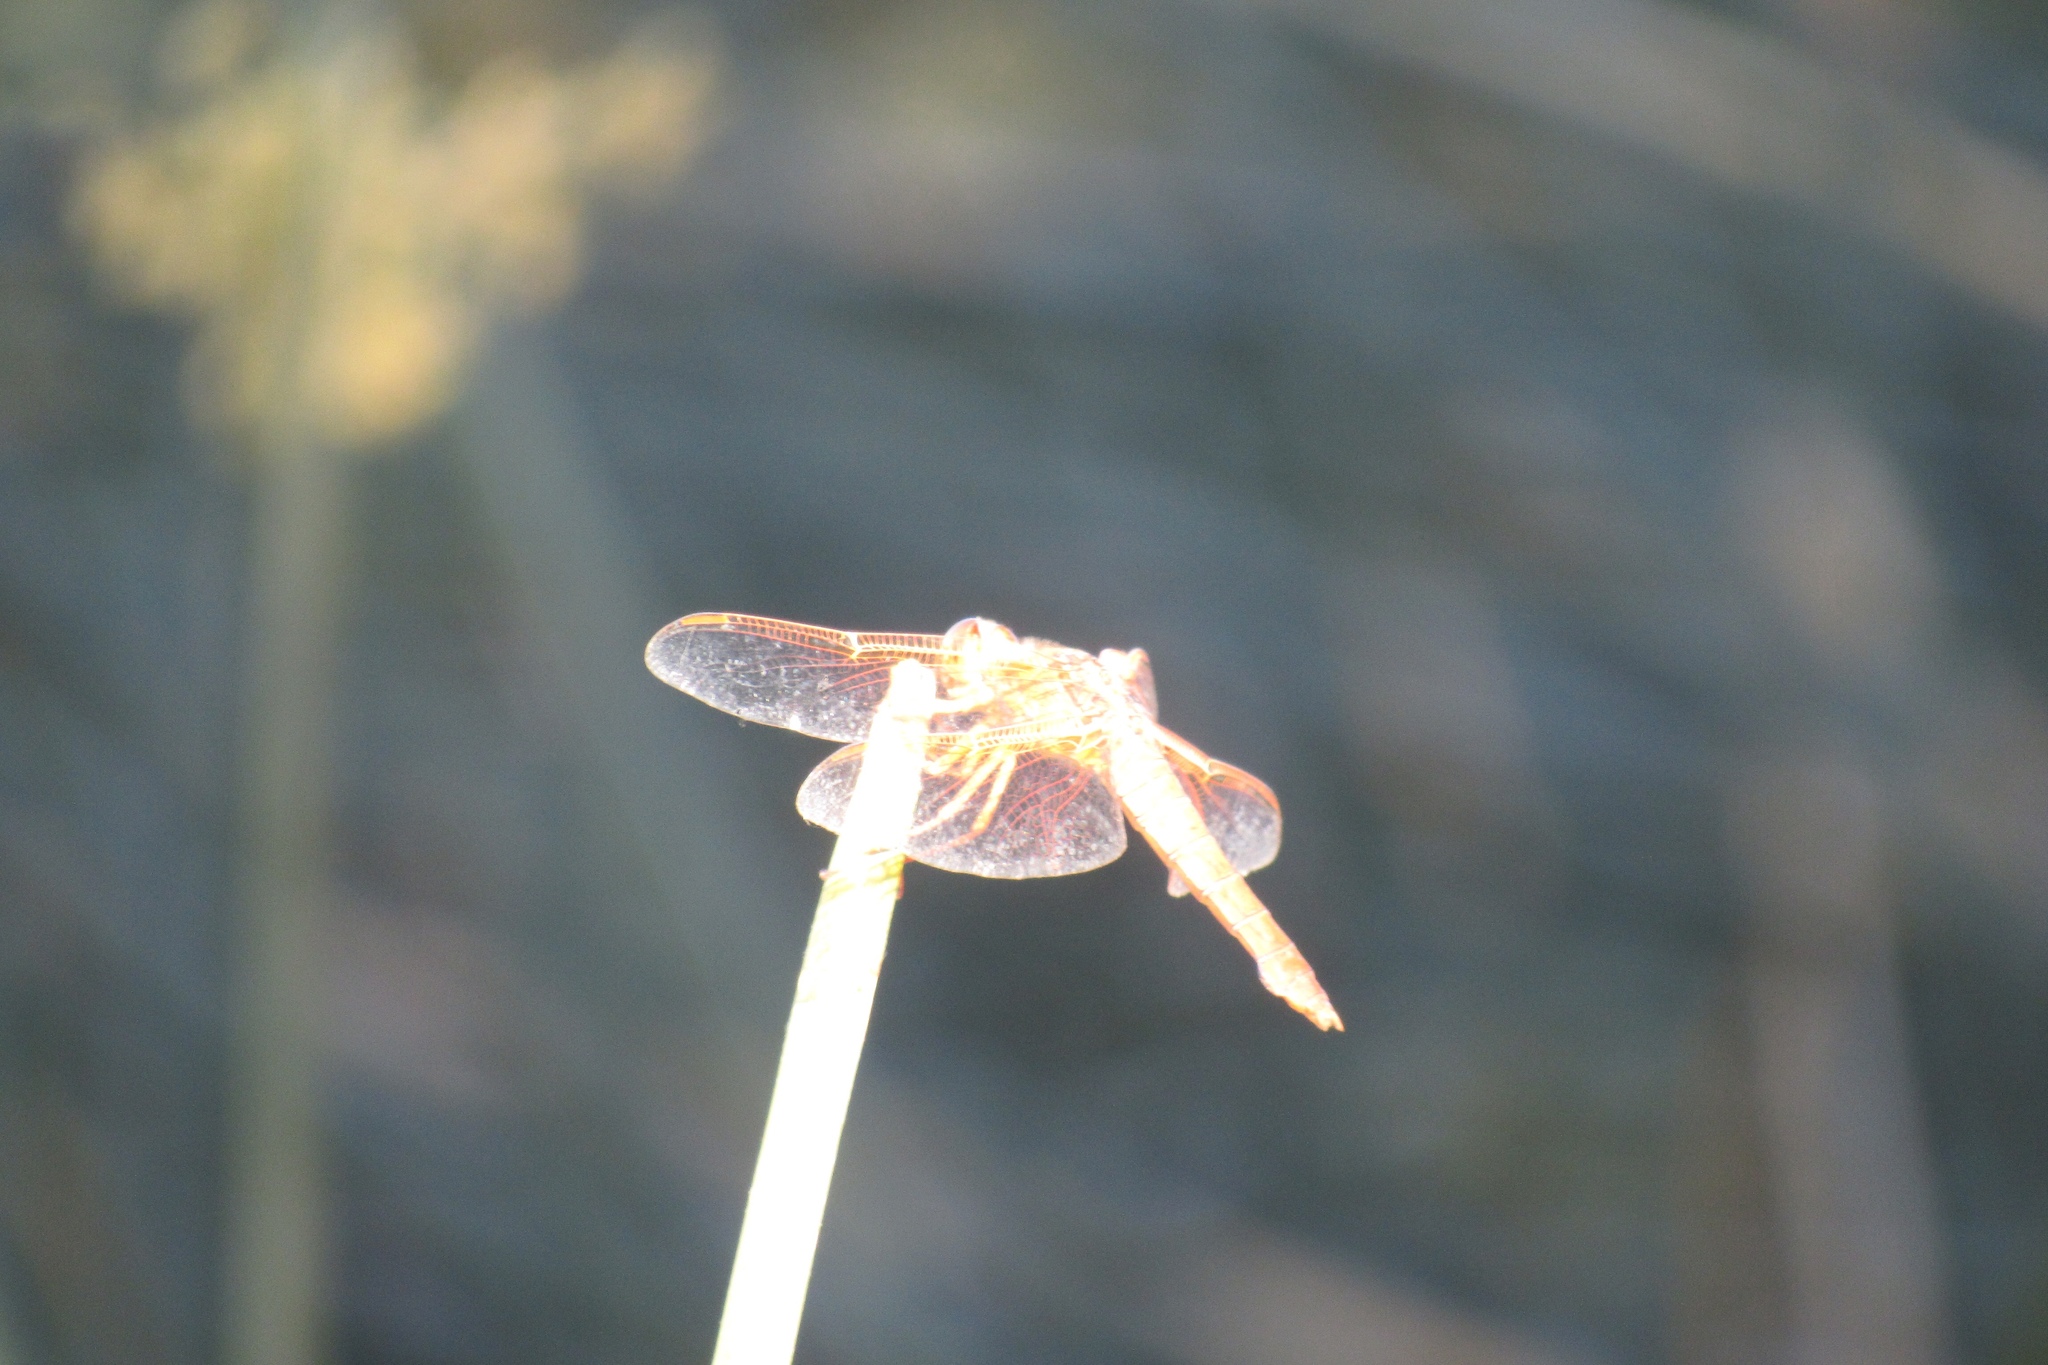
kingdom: Animalia
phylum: Arthropoda
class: Insecta
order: Odonata
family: Libellulidae
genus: Libellula
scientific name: Libellula saturata
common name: Flame skimmer
